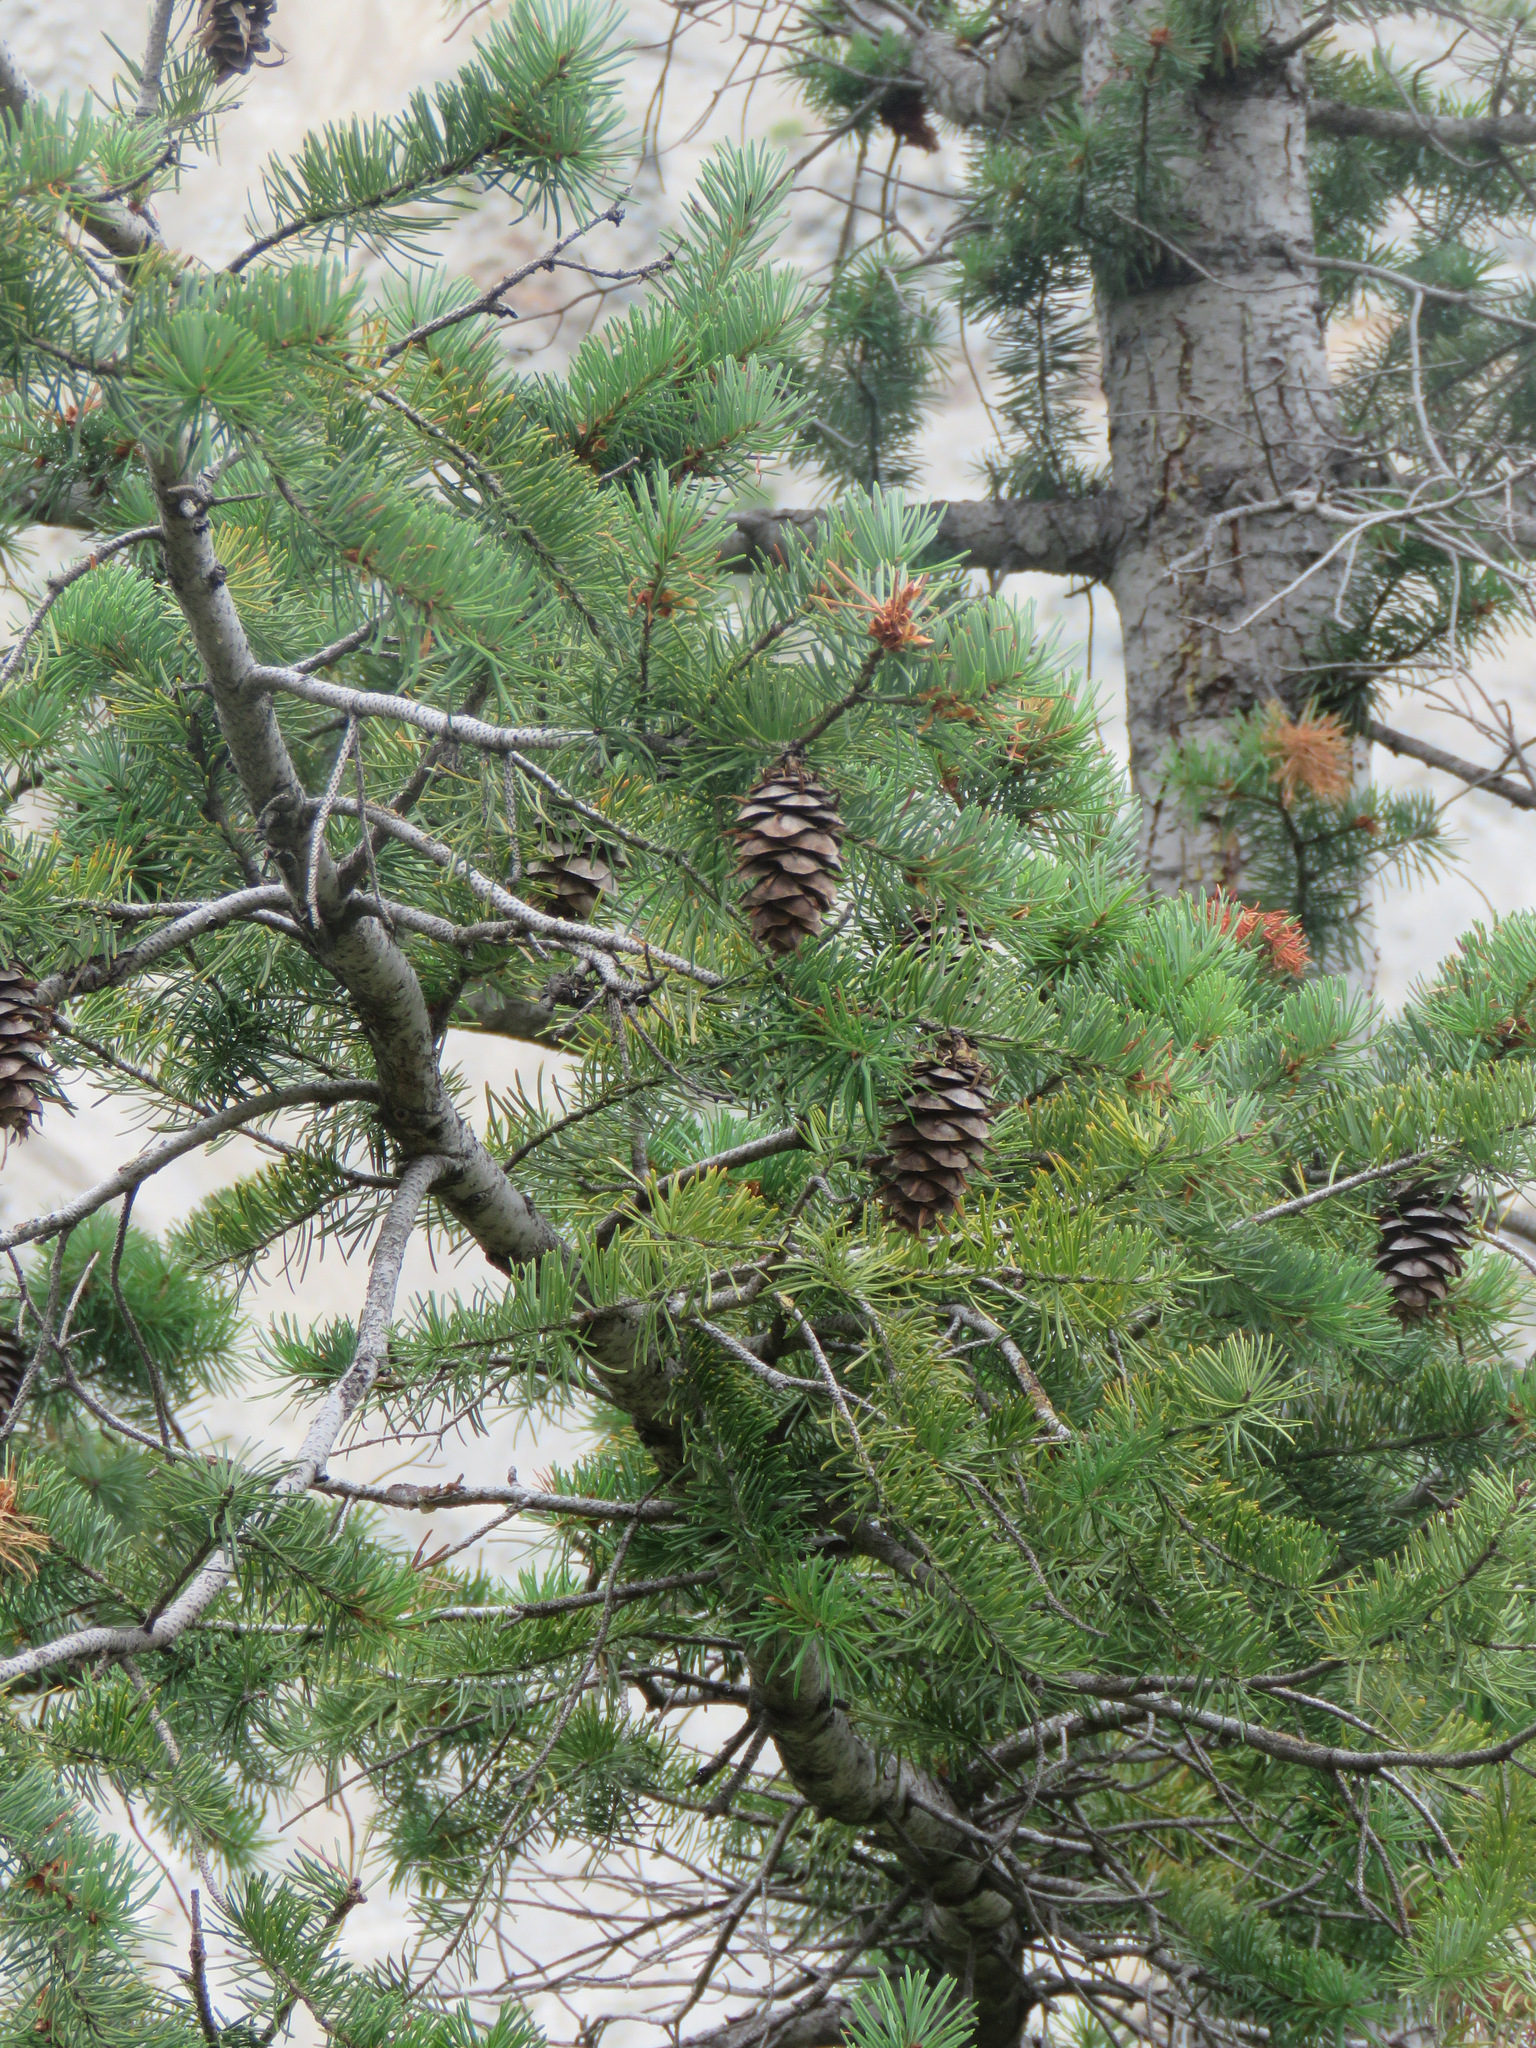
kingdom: Plantae
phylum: Tracheophyta
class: Pinopsida
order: Pinales
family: Pinaceae
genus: Pseudotsuga
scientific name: Pseudotsuga menziesii
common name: Douglas fir
